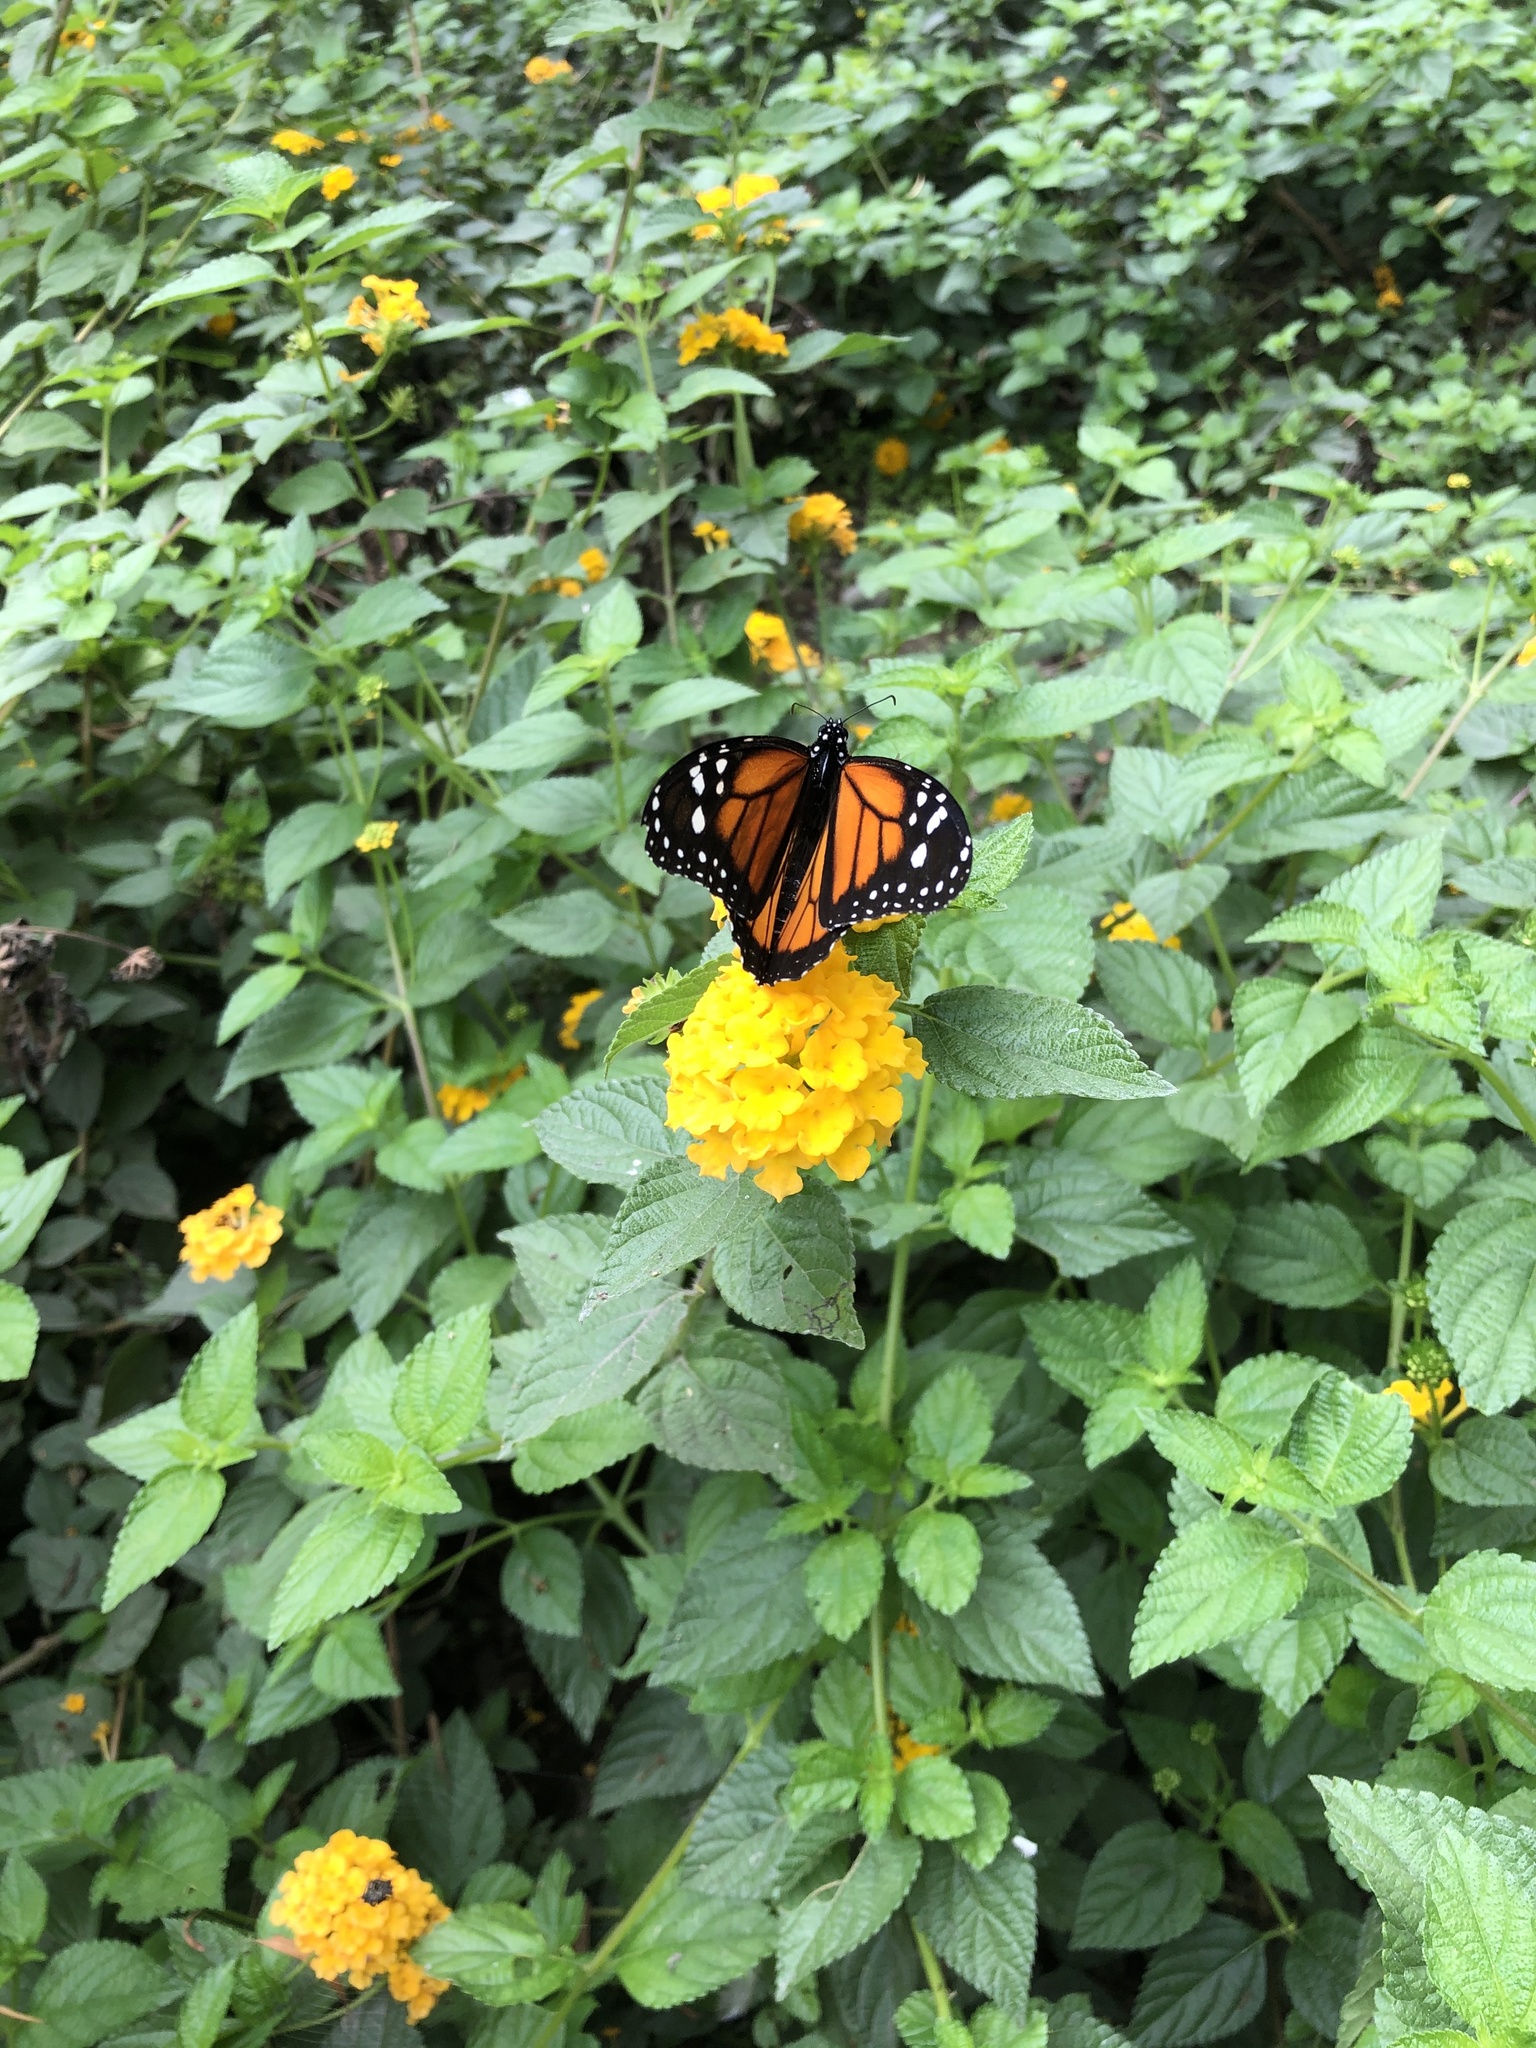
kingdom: Animalia
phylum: Arthropoda
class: Insecta
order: Lepidoptera
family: Nymphalidae
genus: Danaus
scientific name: Danaus plexippus
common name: Monarch
